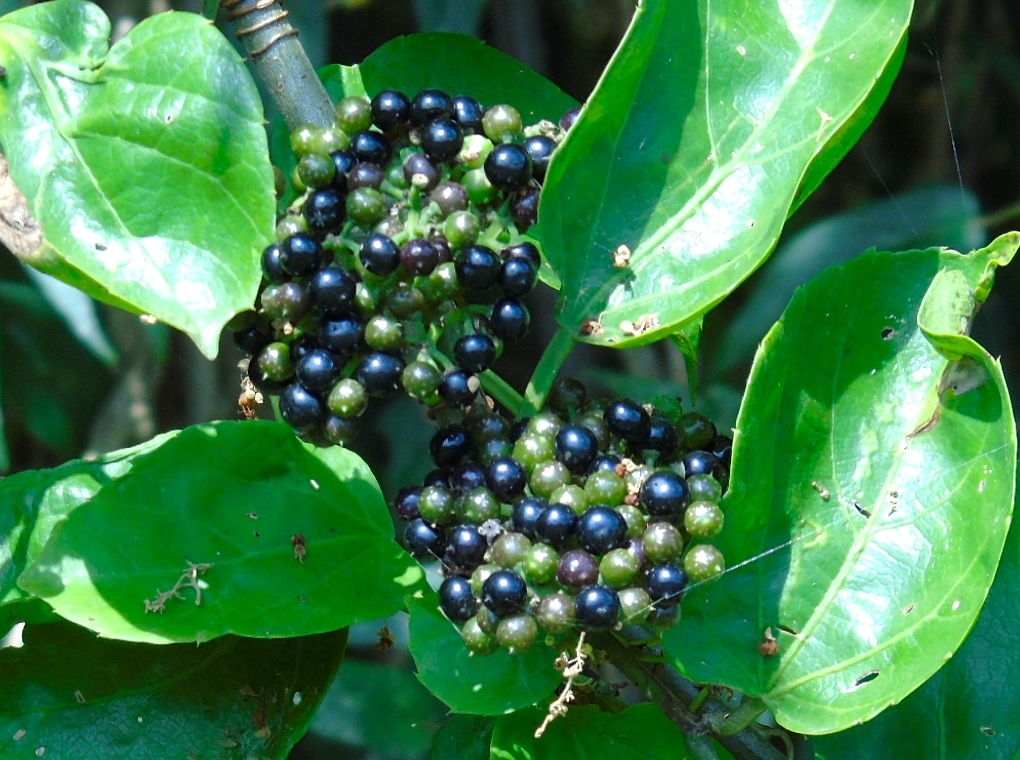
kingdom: Plantae
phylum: Tracheophyta
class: Magnoliopsida
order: Vitales
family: Vitaceae
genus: Cissus
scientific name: Cissus verticillata
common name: Princess vine
